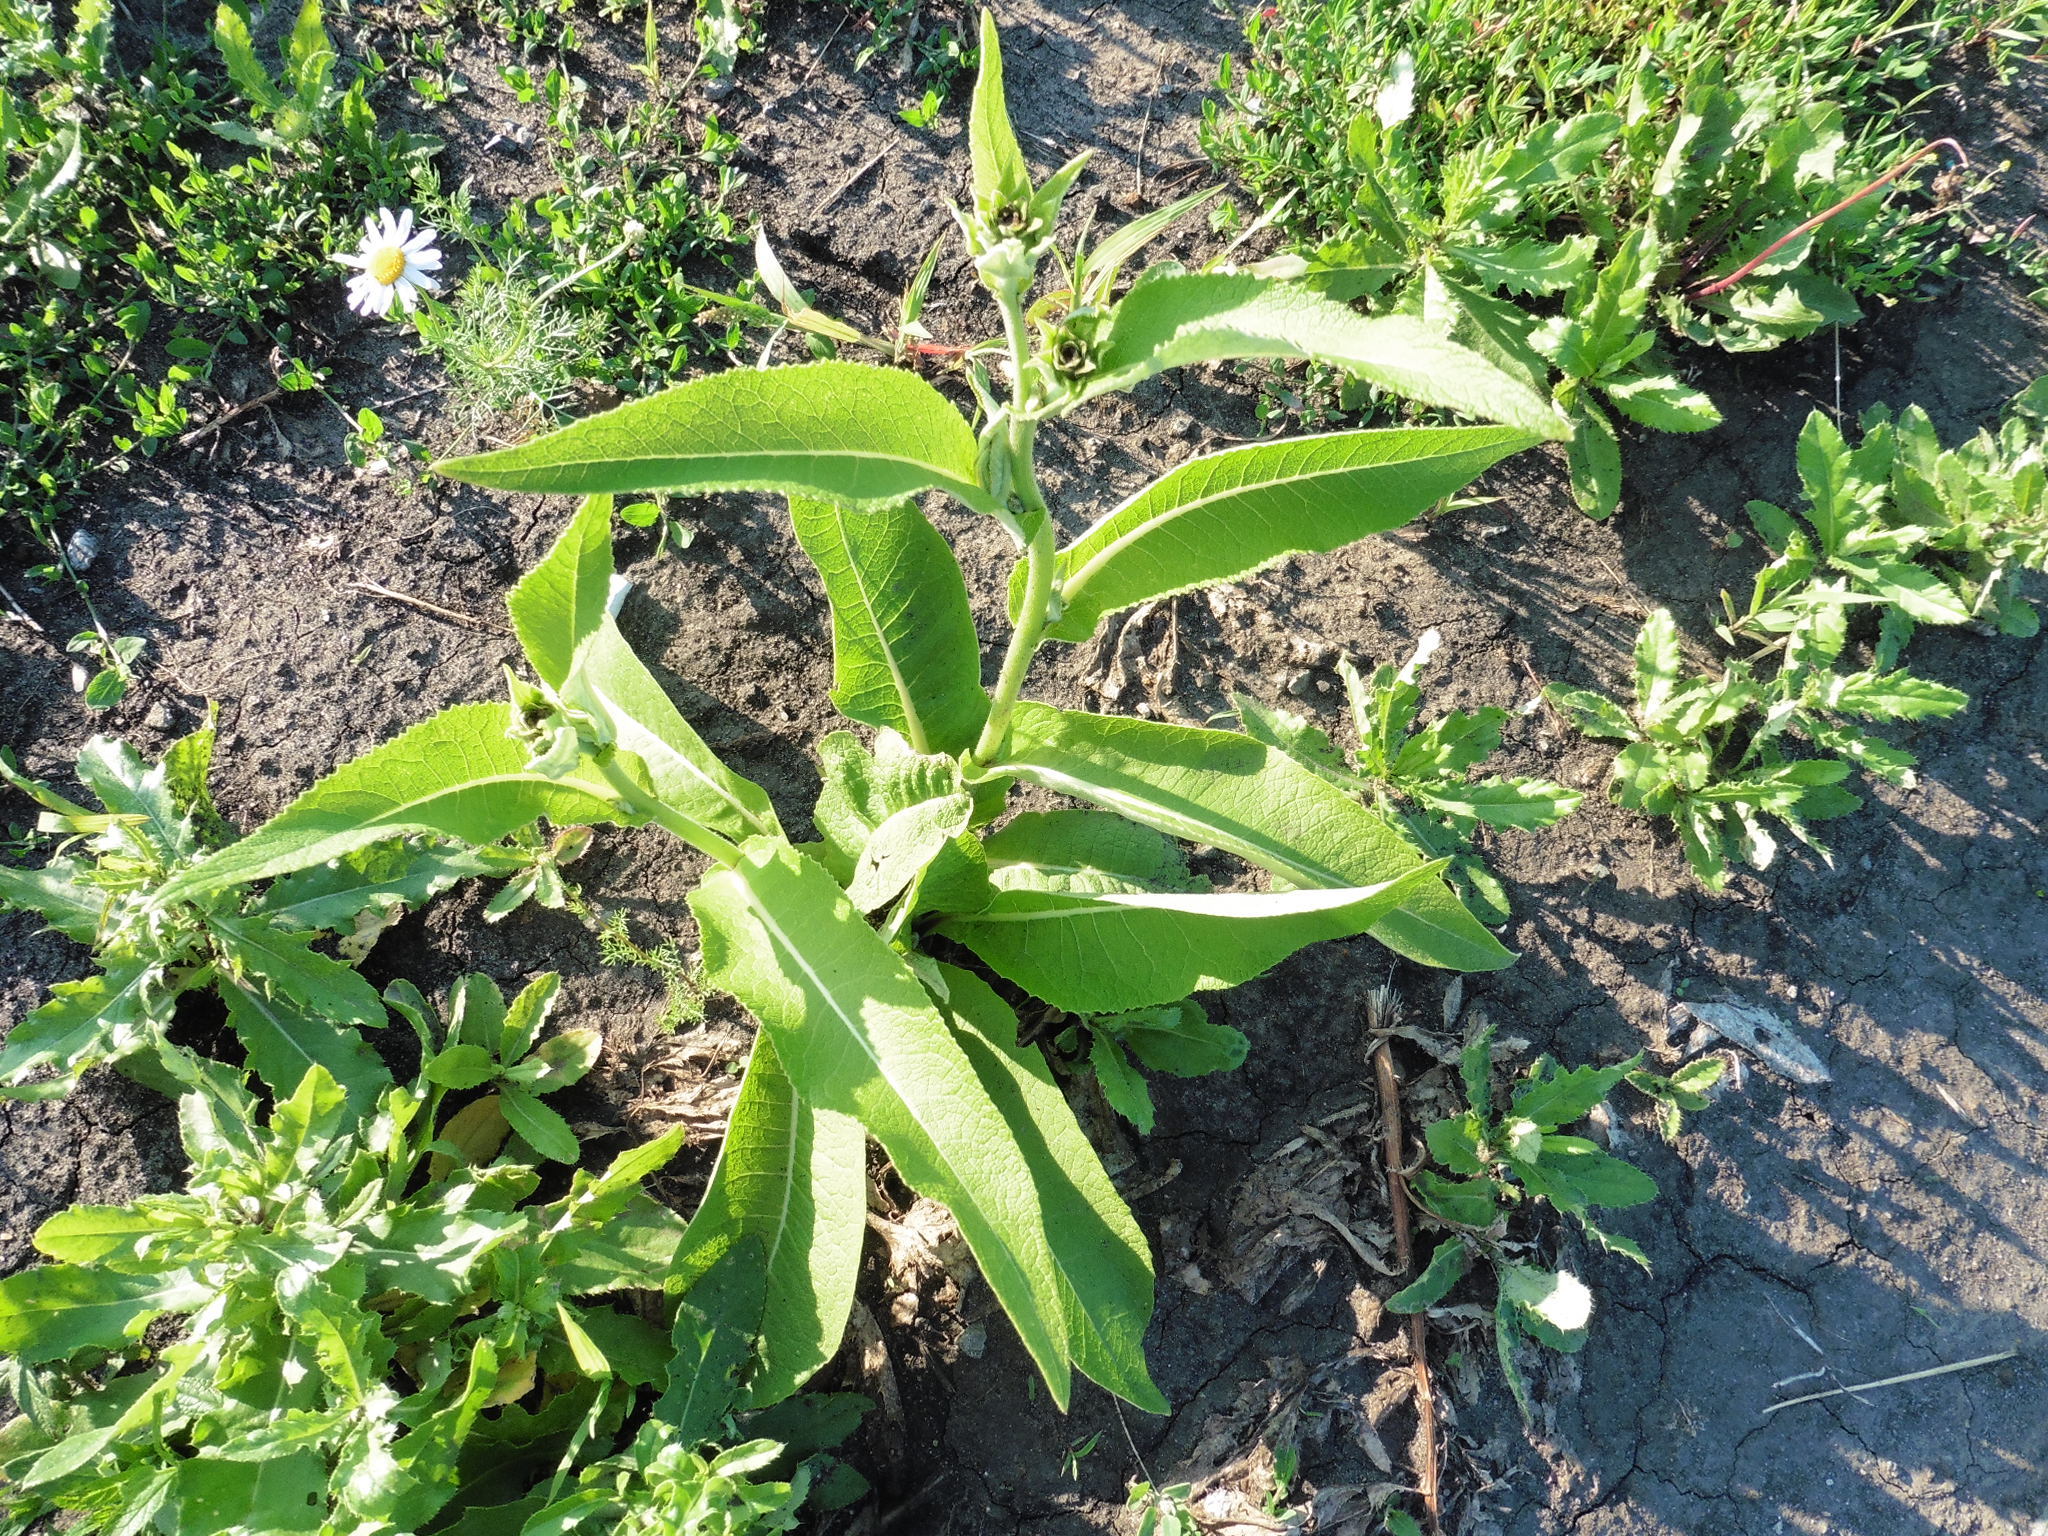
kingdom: Plantae
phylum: Tracheophyta
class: Magnoliopsida
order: Asterales
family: Asteraceae
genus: Inula
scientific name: Inula helenium
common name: Elecampane
